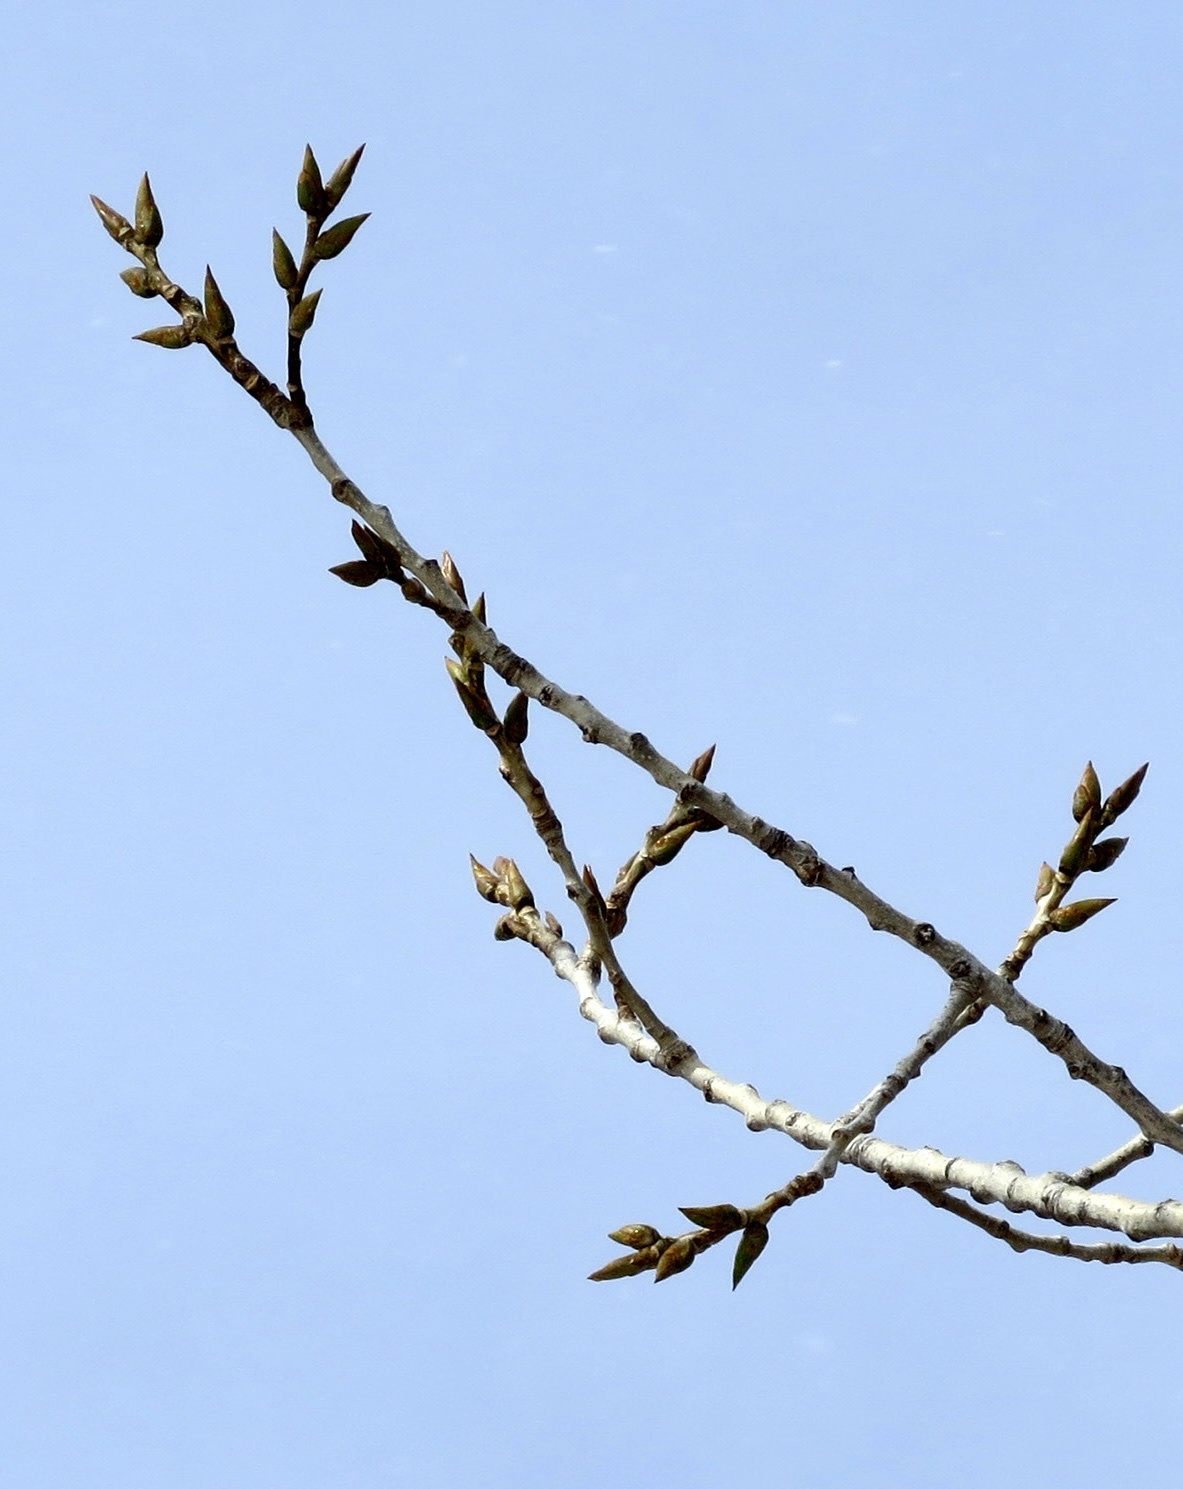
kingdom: Plantae
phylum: Tracheophyta
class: Magnoliopsida
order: Malpighiales
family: Salicaceae
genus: Populus
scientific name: Populus deltoides
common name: Eastern cottonwood
